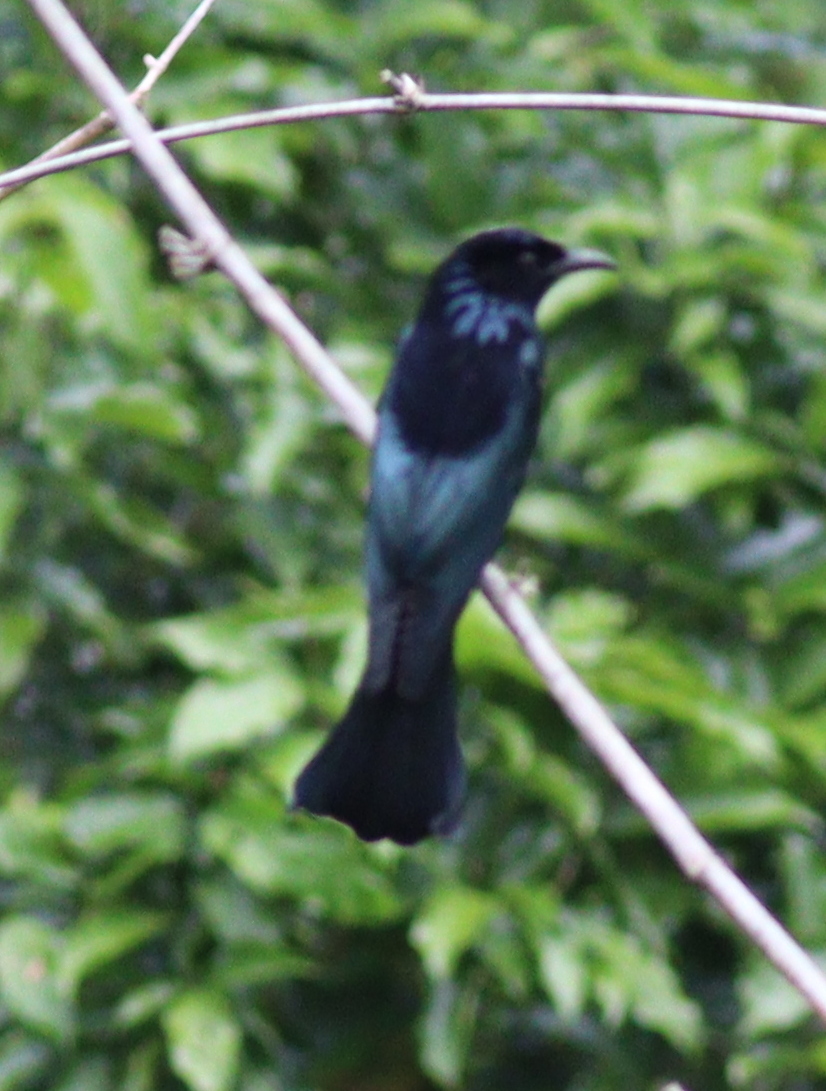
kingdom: Animalia
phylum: Chordata
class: Aves
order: Passeriformes
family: Dicruridae
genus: Dicrurus
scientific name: Dicrurus hottentottus
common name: Hair-crested drongo
